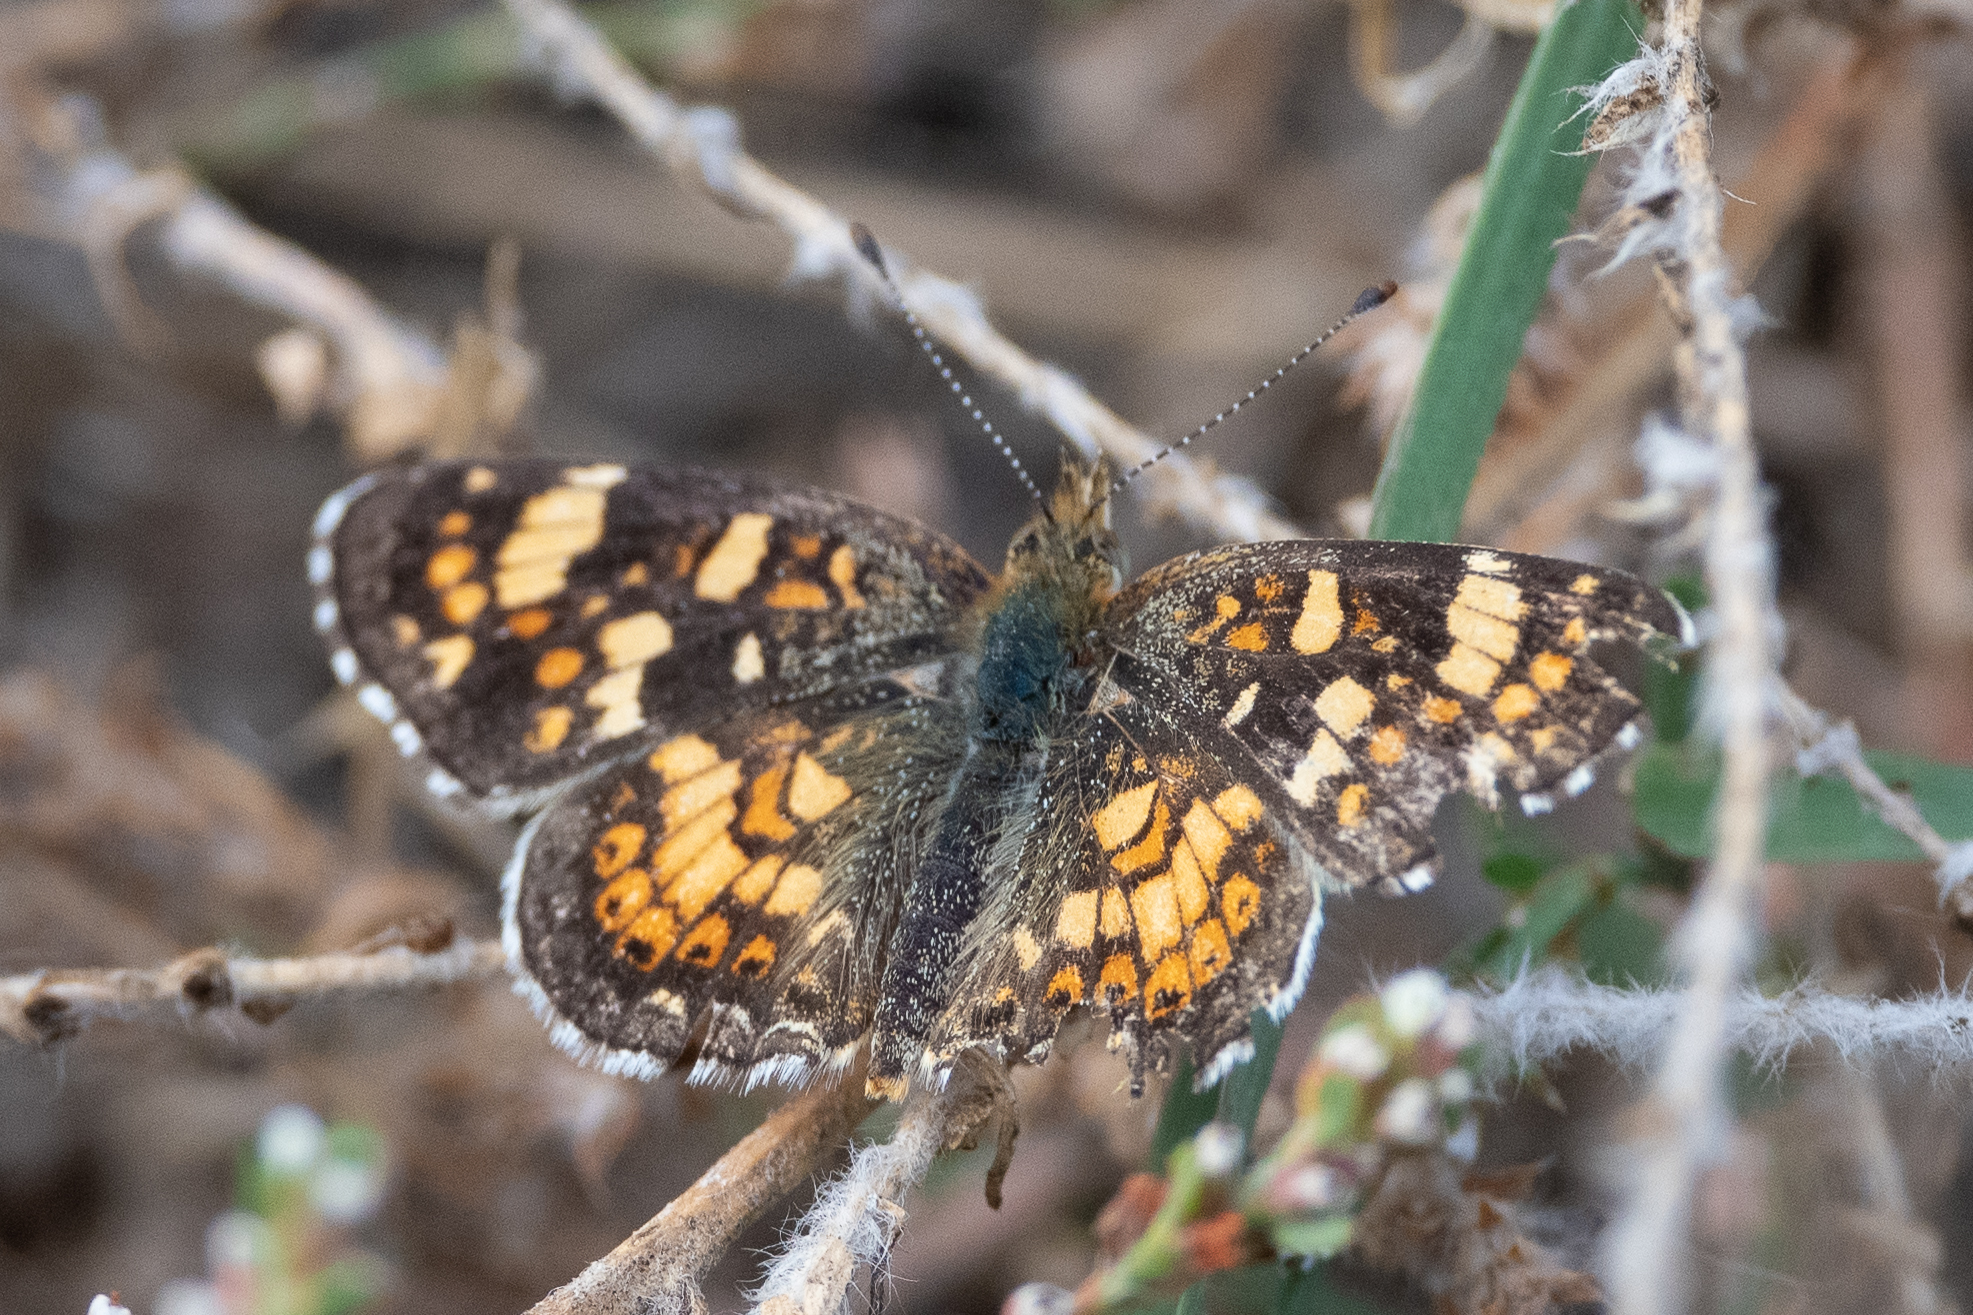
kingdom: Animalia
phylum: Arthropoda
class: Insecta
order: Lepidoptera
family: Nymphalidae
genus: Phyciodes
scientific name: Phyciodes tharos
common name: Pearl crescent
